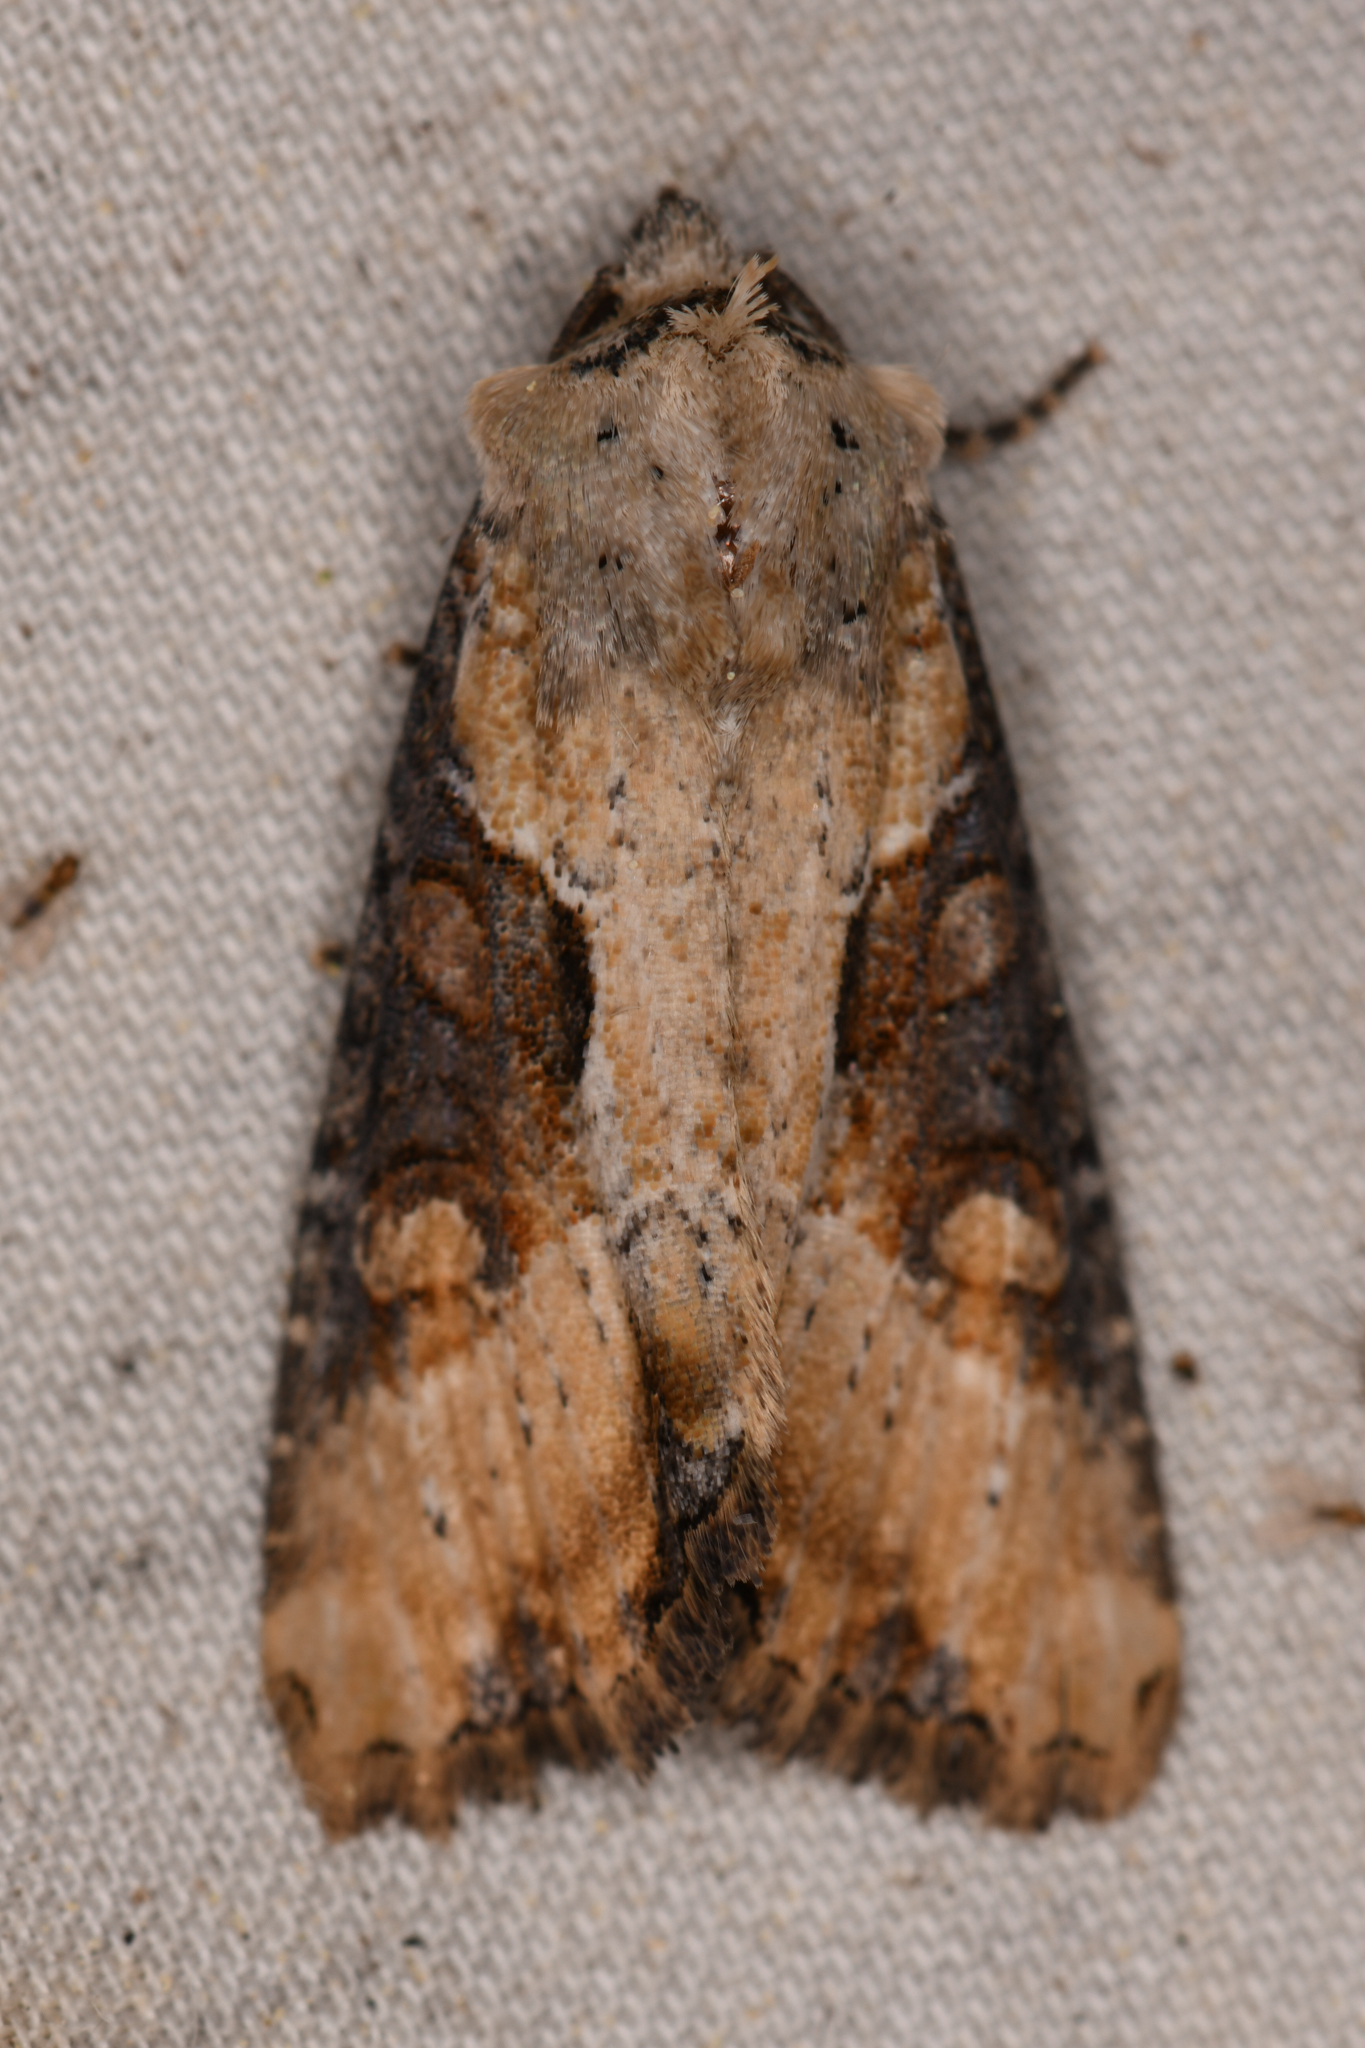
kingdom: Animalia
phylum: Arthropoda
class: Insecta
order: Lepidoptera
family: Noctuidae
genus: Lateroligia
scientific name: Lateroligia ophiogramma
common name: Double lobed
